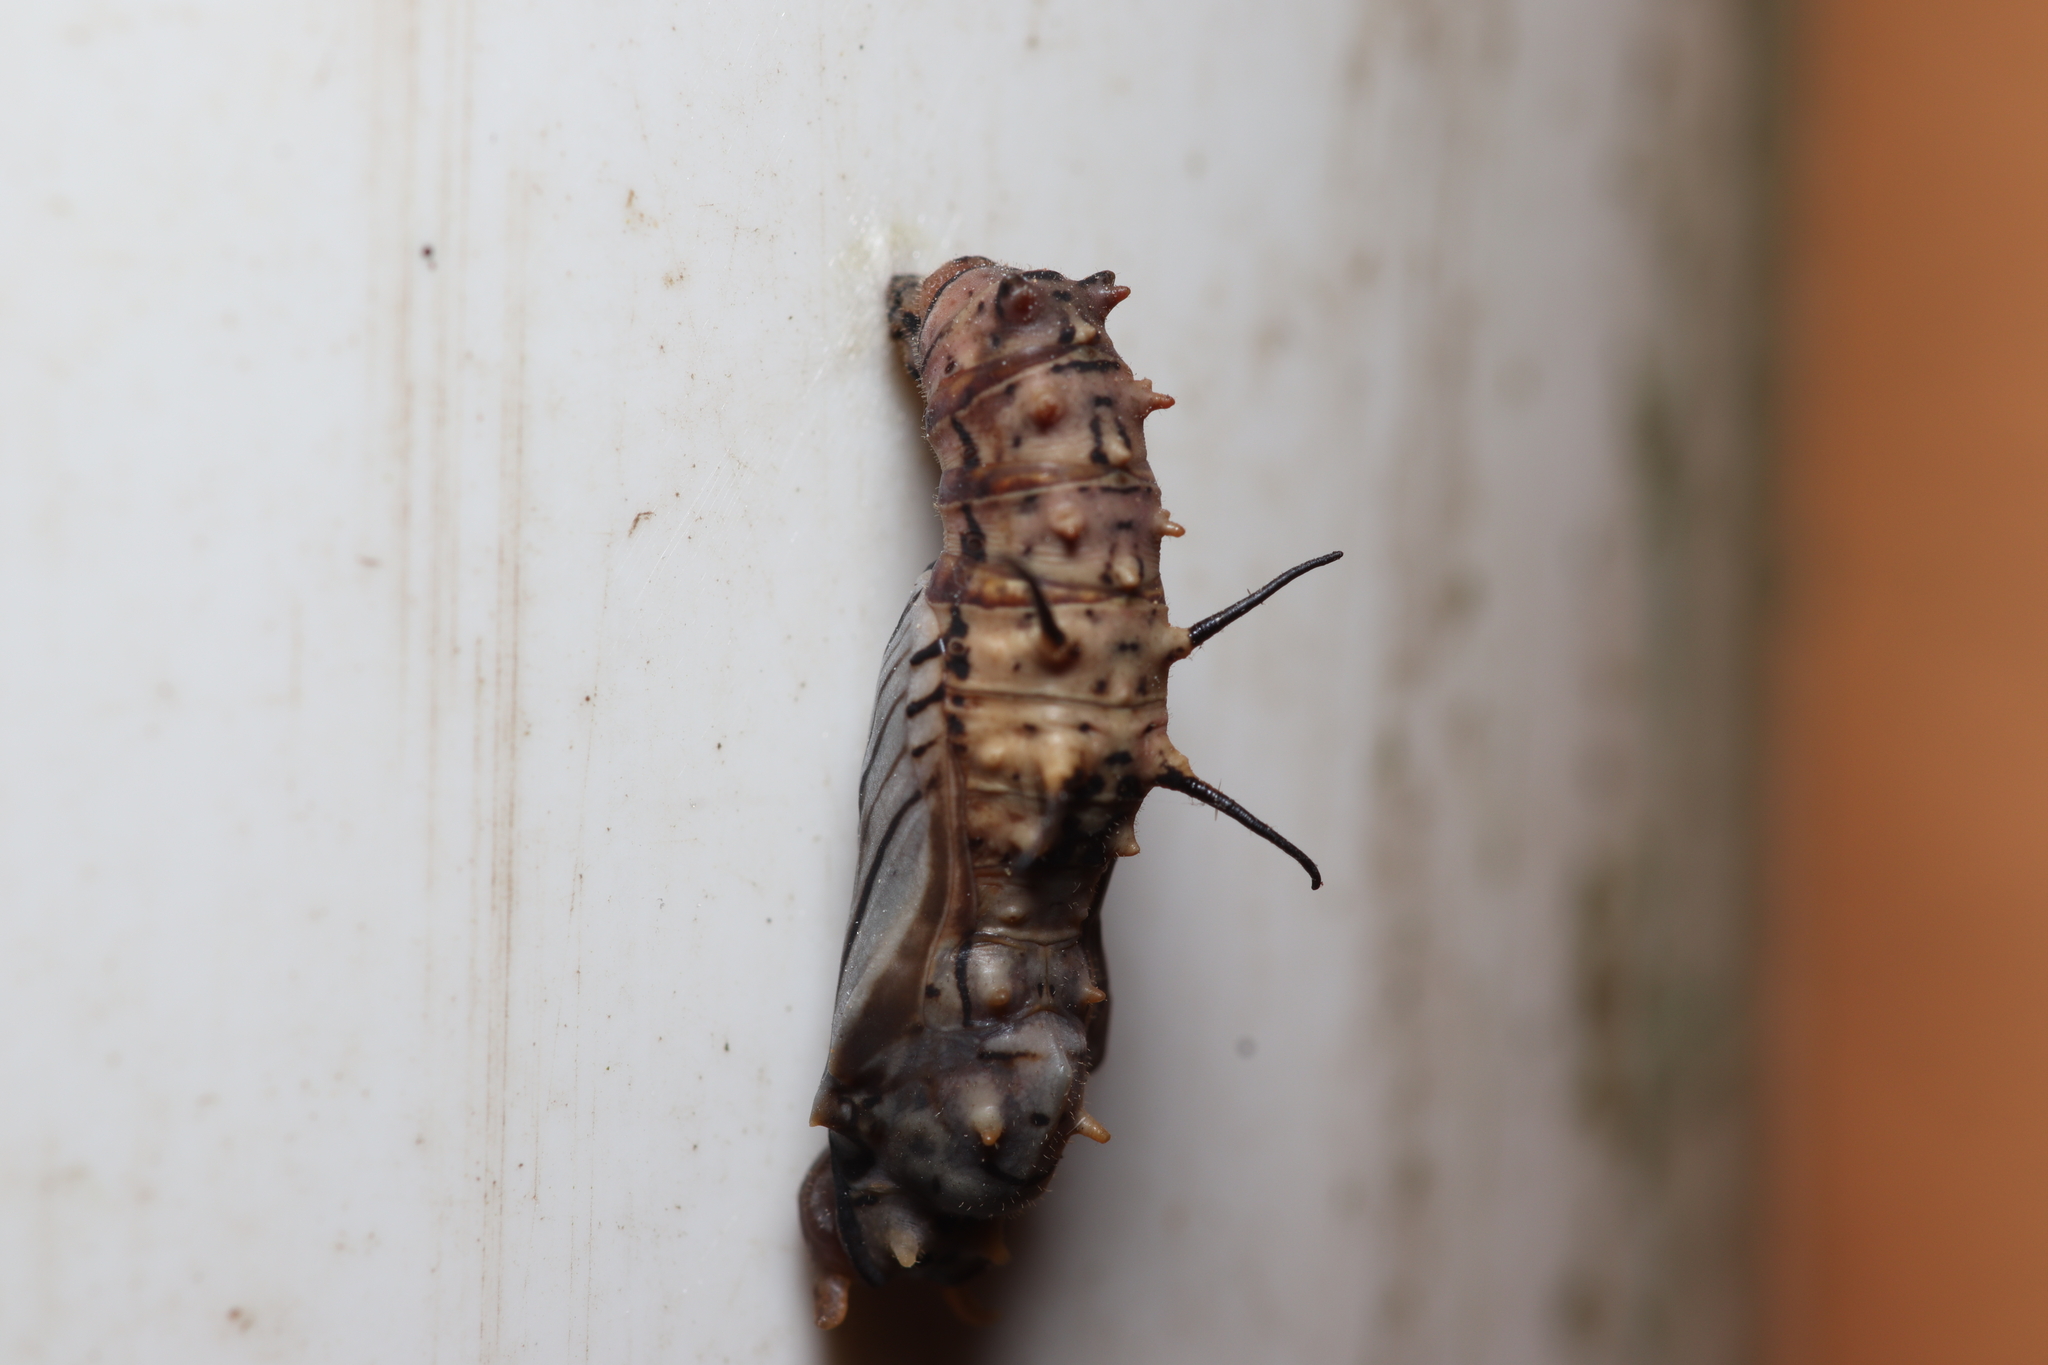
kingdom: Animalia
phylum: Arthropoda
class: Insecta
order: Lepidoptera
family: Nymphalidae
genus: Eueides
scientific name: Eueides isabella
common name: Isabella's longwing
